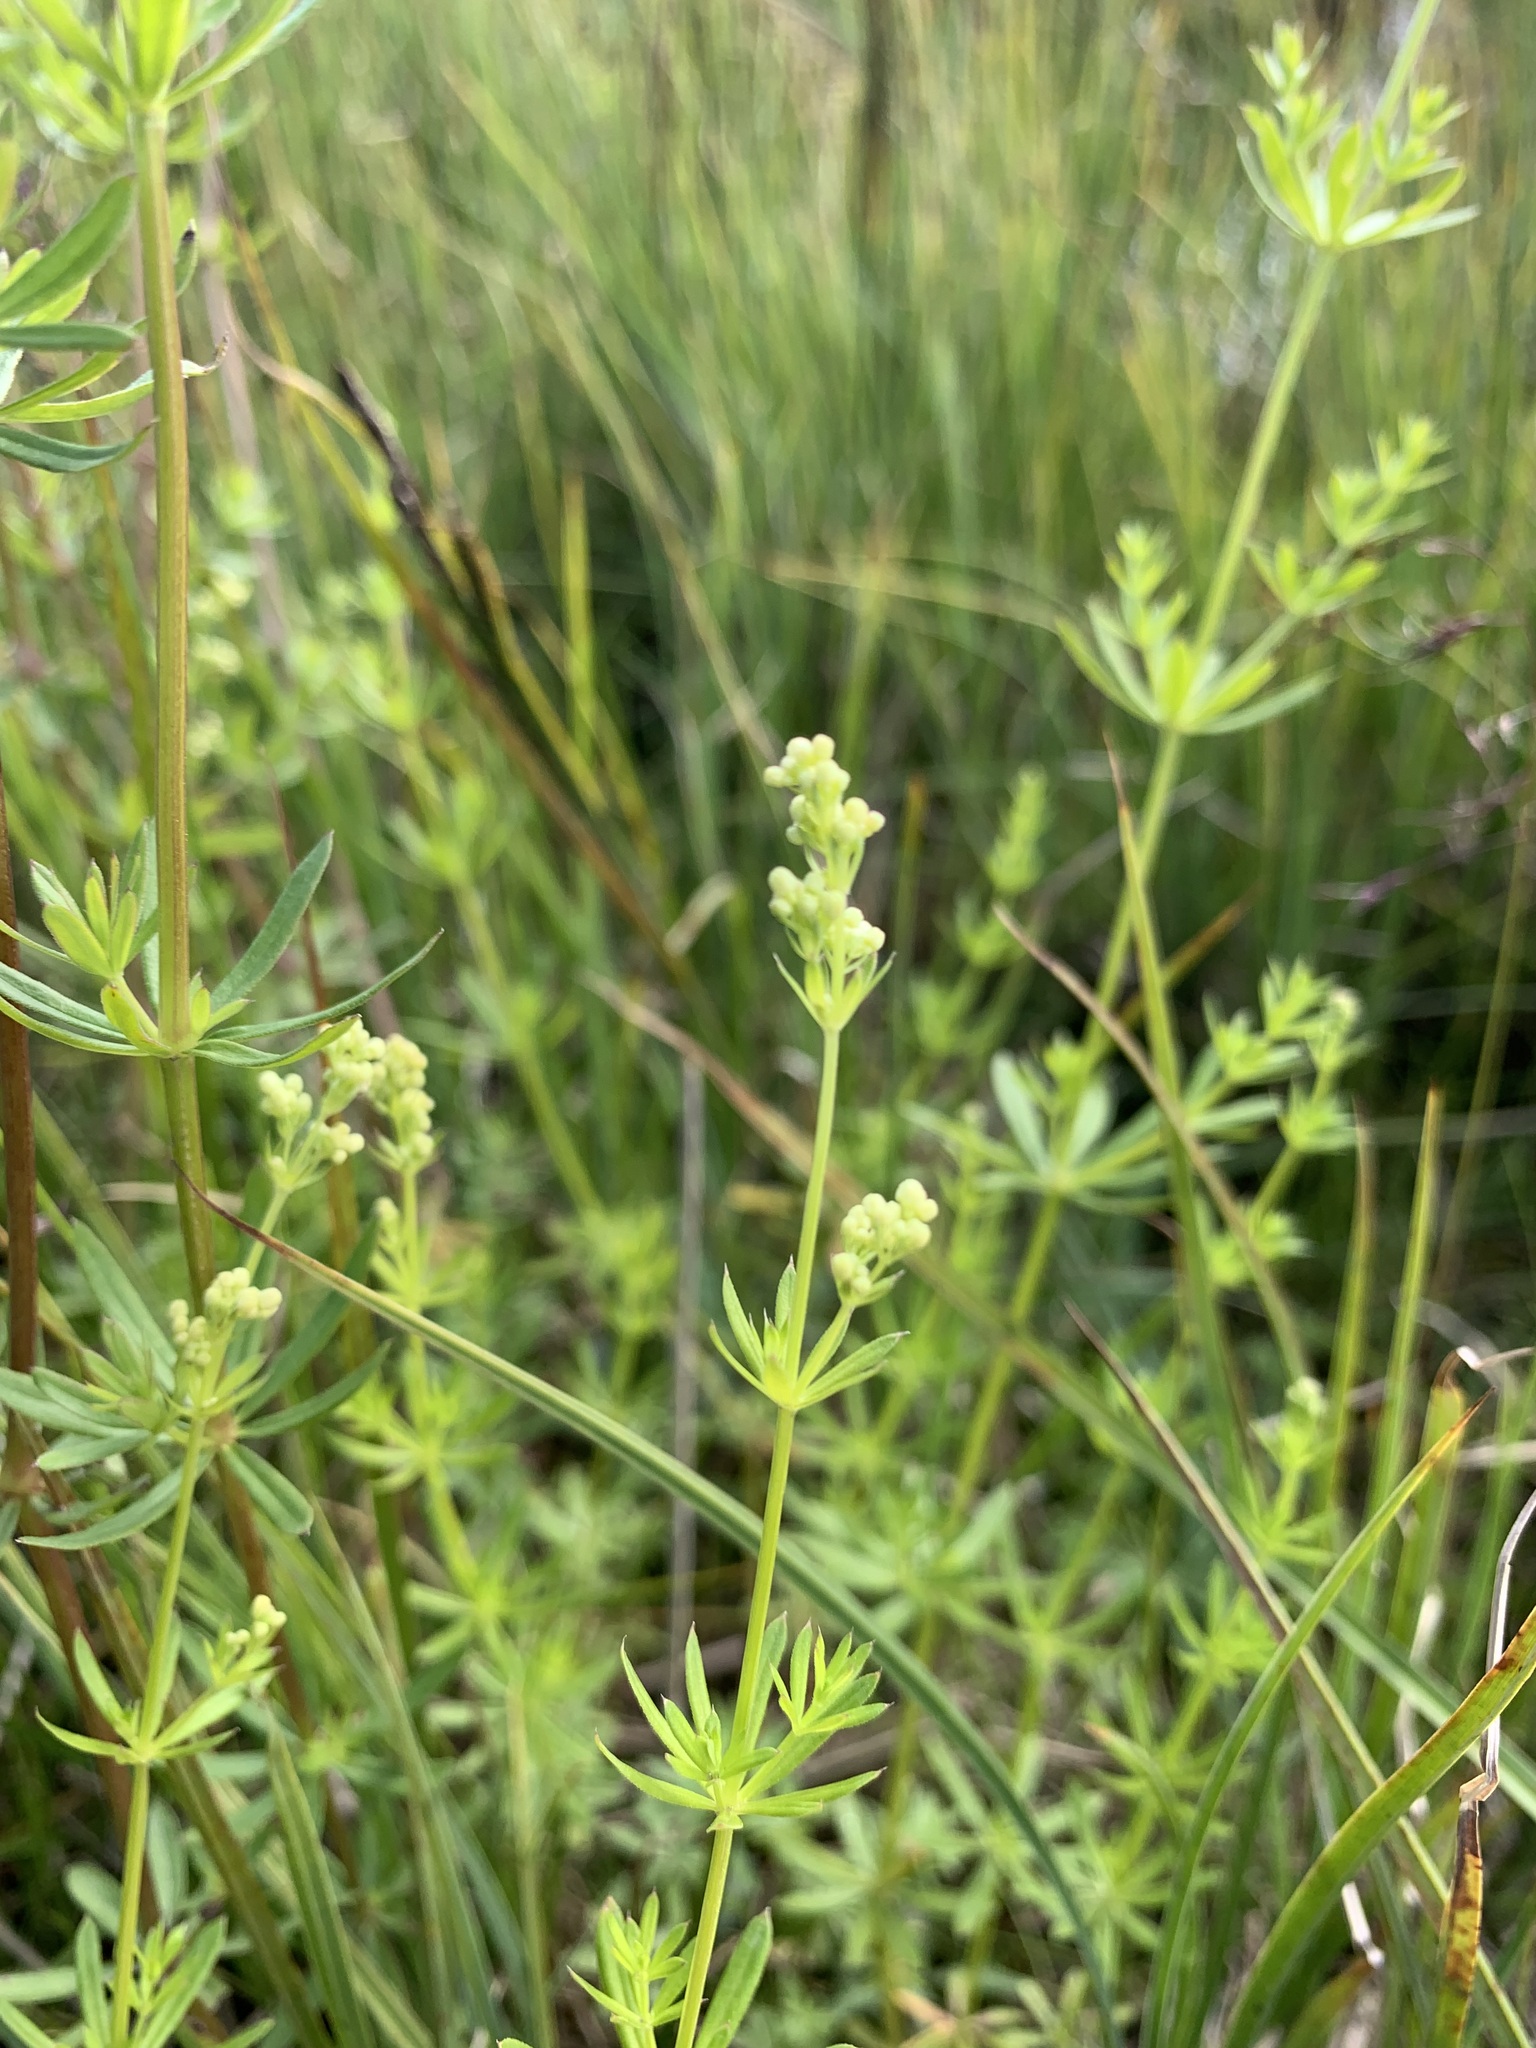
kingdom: Plantae
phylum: Tracheophyta
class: Magnoliopsida
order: Gentianales
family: Rubiaceae
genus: Galium
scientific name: Galium mollugo
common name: Hedge bedstraw
